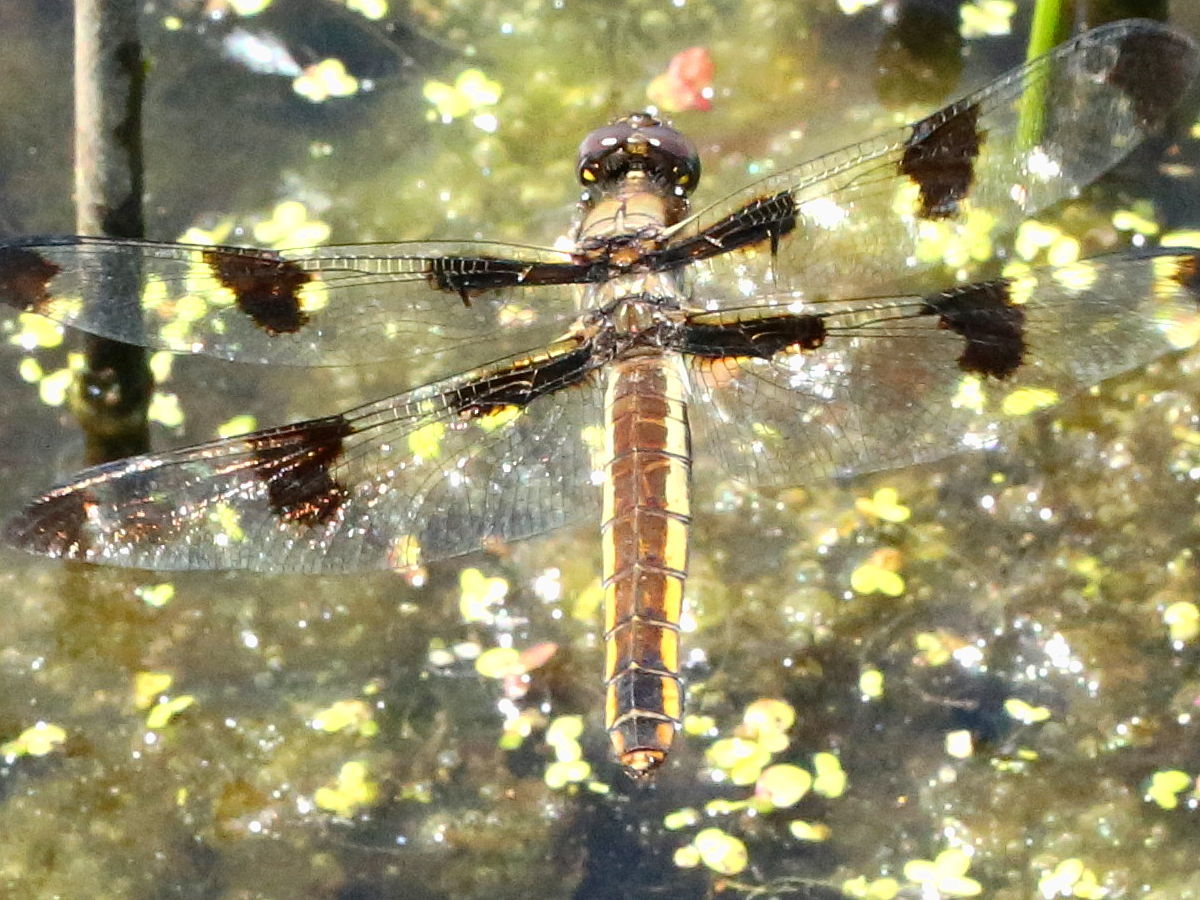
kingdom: Animalia
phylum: Arthropoda
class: Insecta
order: Odonata
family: Libellulidae
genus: Libellula
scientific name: Libellula pulchella
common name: Twelve-spotted skimmer
